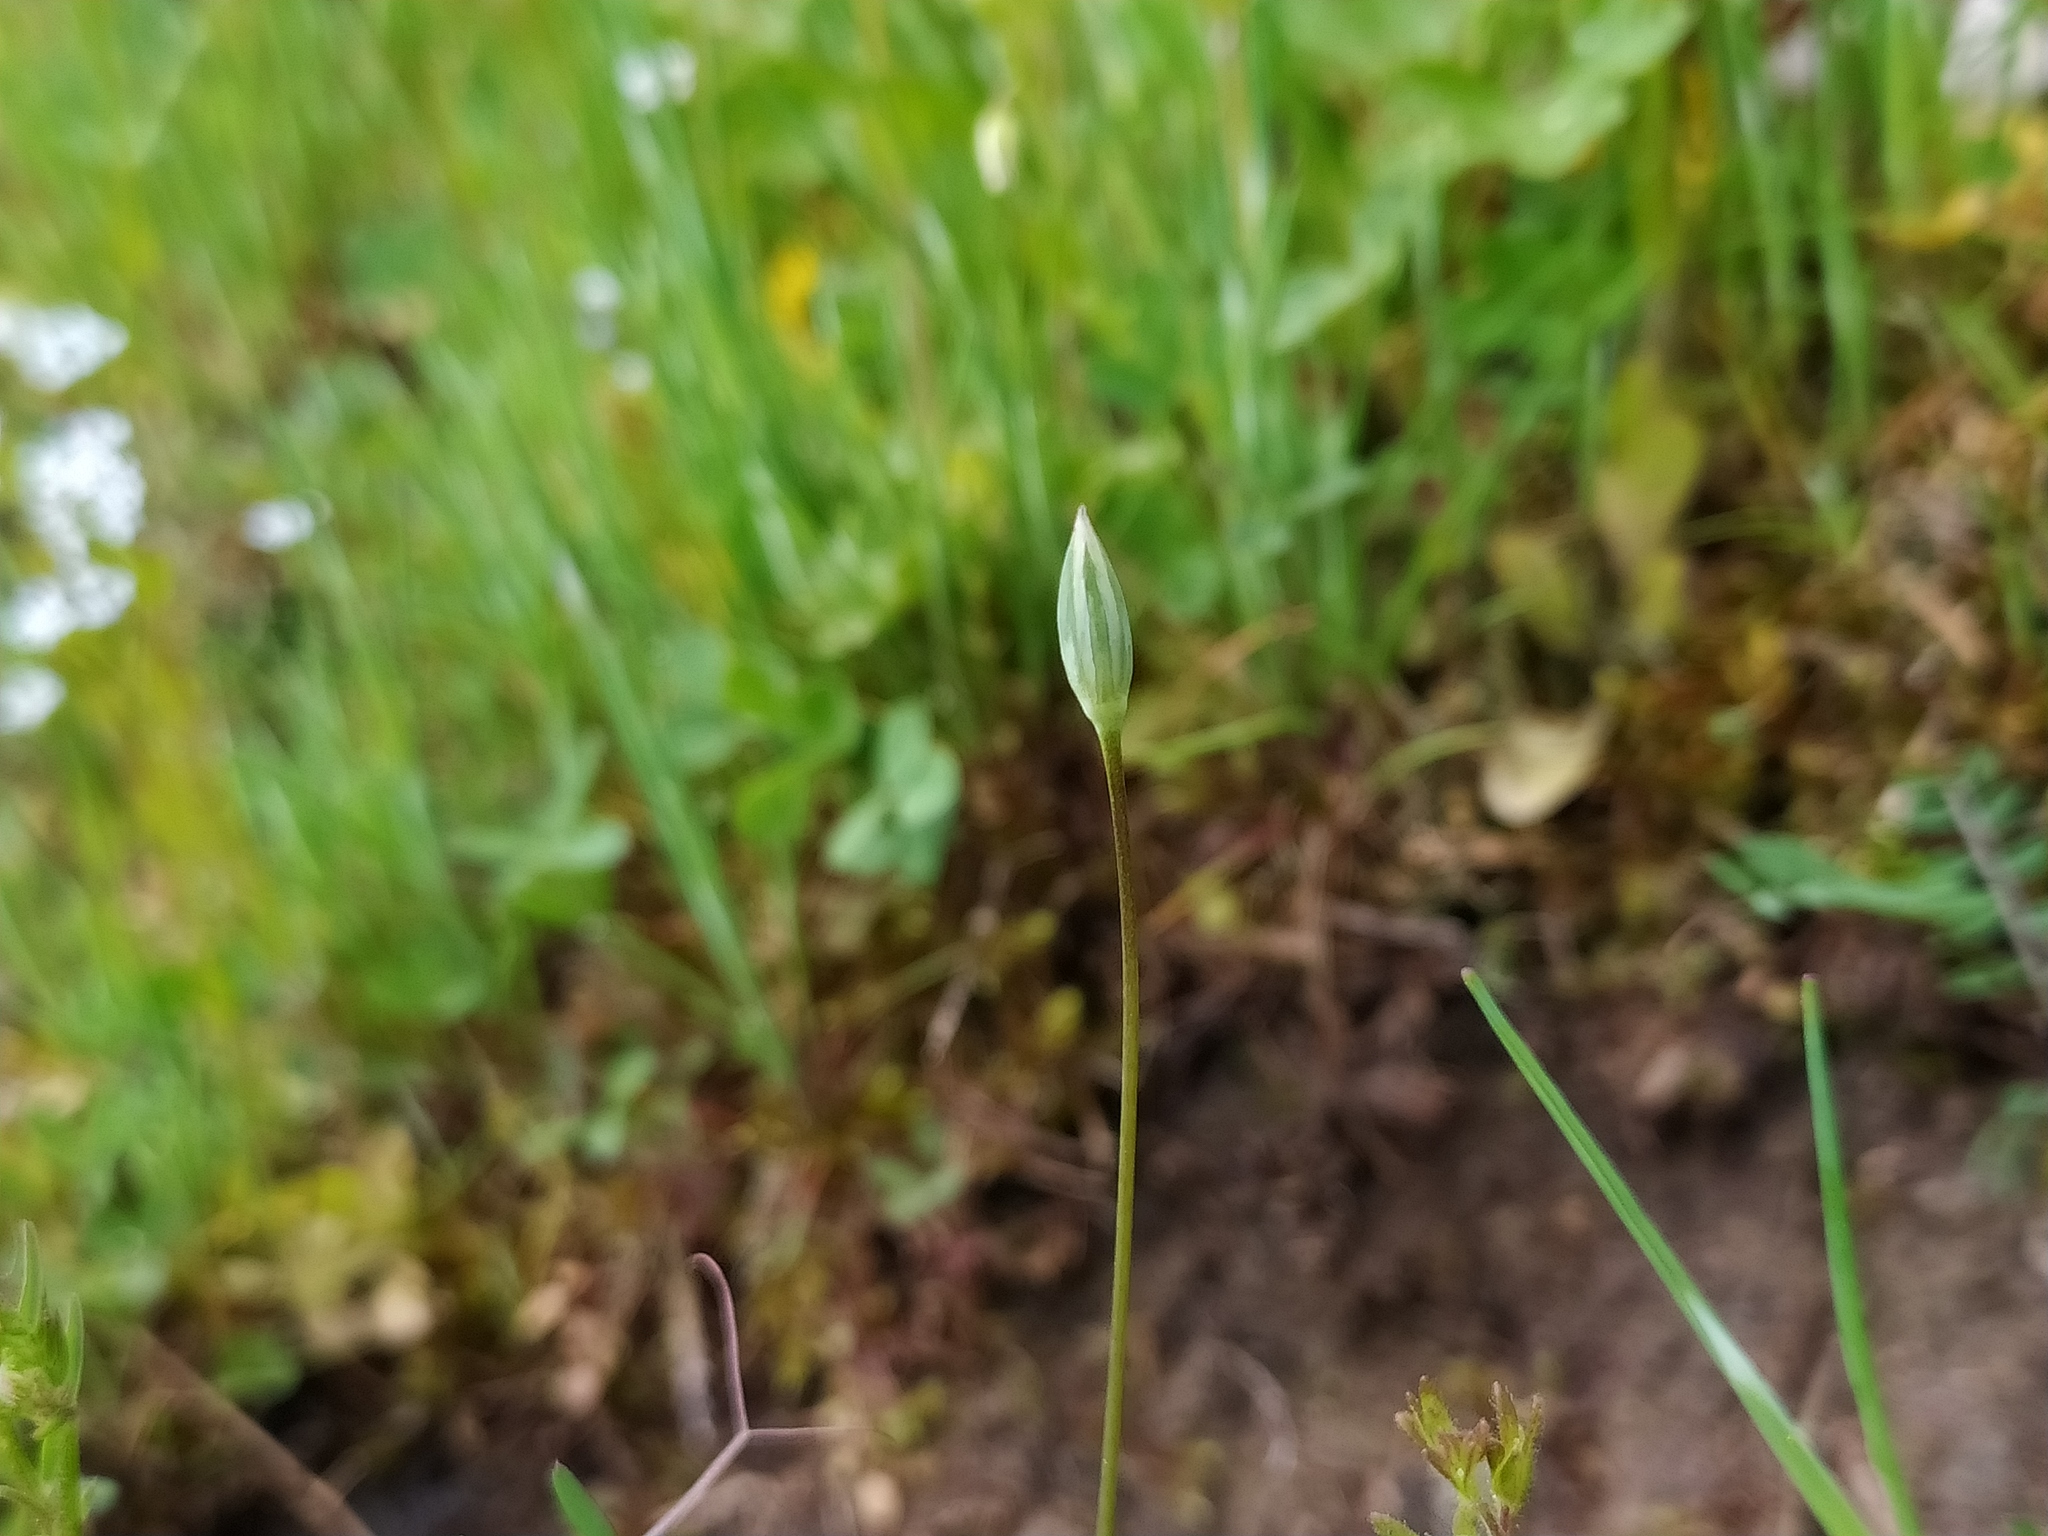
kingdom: Plantae
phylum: Tracheophyta
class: Magnoliopsida
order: Caryophyllales
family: Caryophyllaceae
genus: Moenchia
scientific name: Moenchia erecta
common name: Upright chickweed
